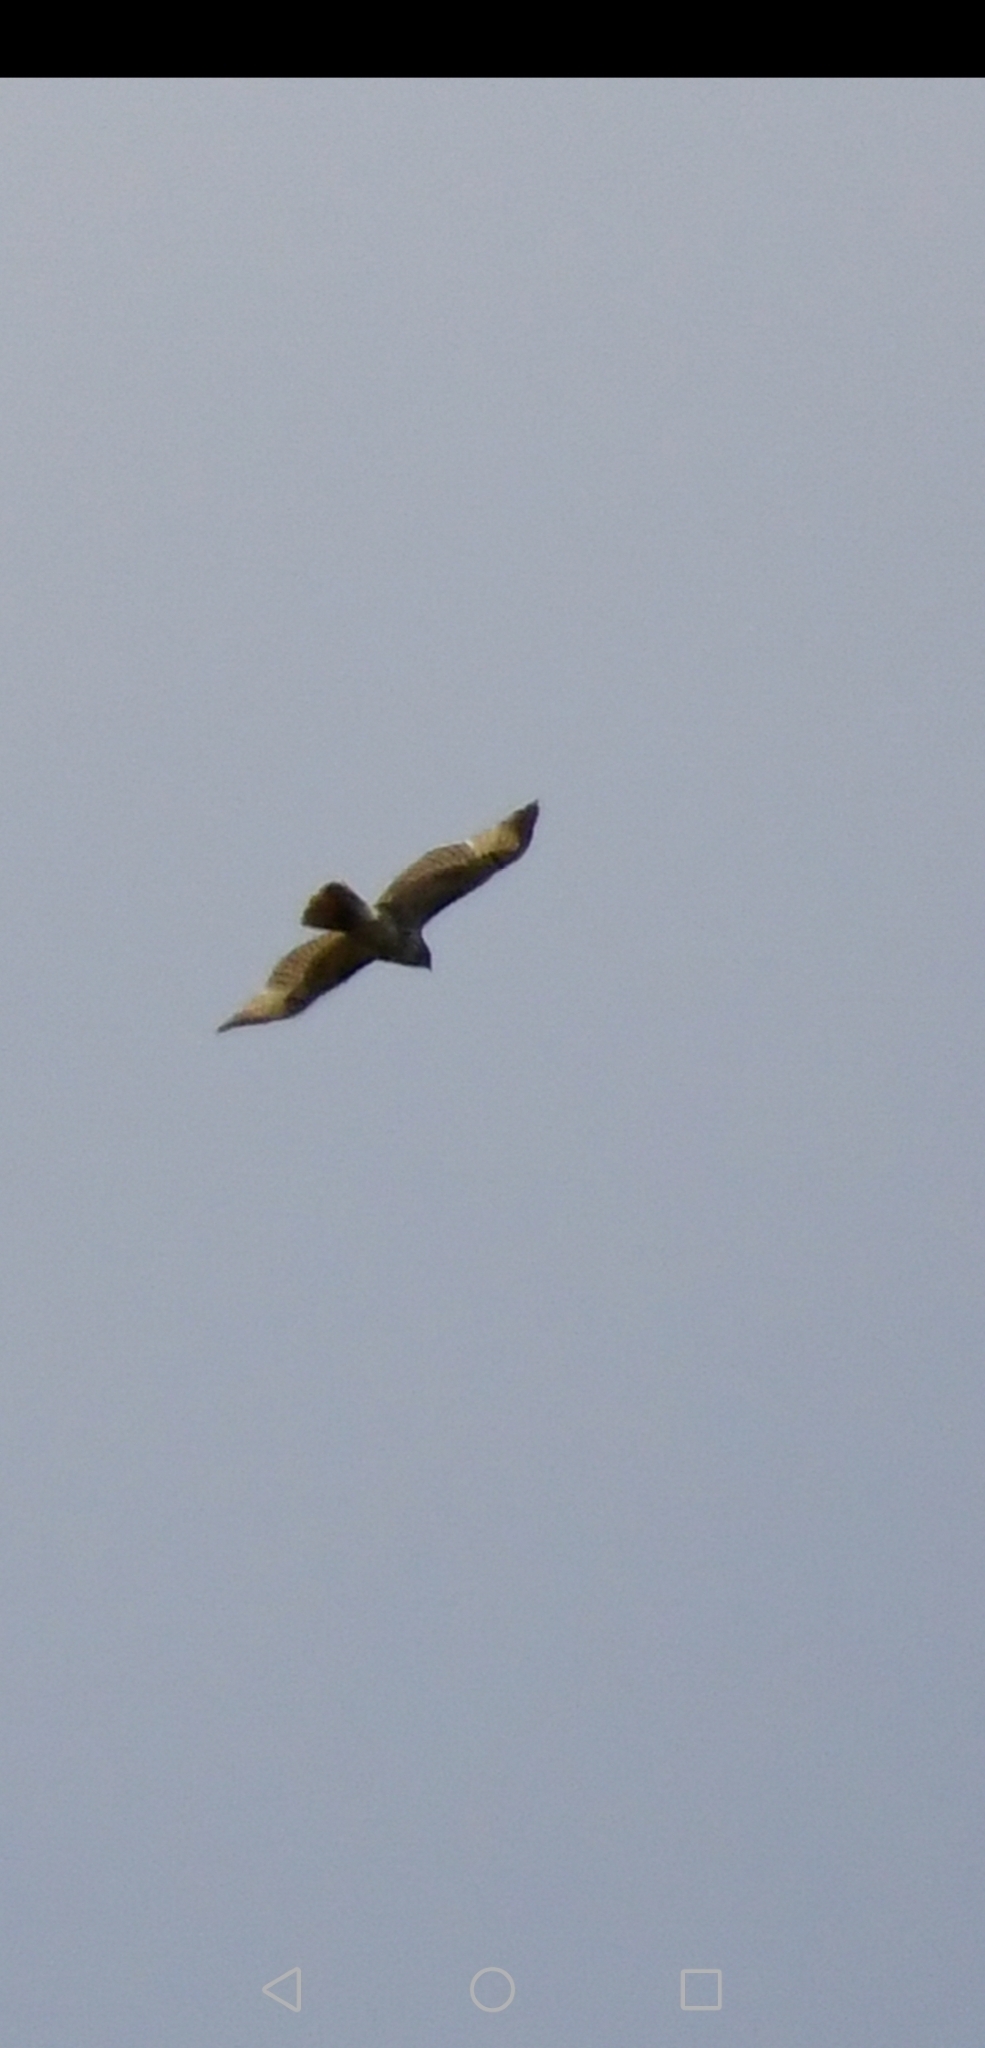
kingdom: Animalia
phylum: Chordata
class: Aves
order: Accipitriformes
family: Accipitridae
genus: Buteo
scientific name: Buteo jamaicensis
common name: Red-tailed hawk
